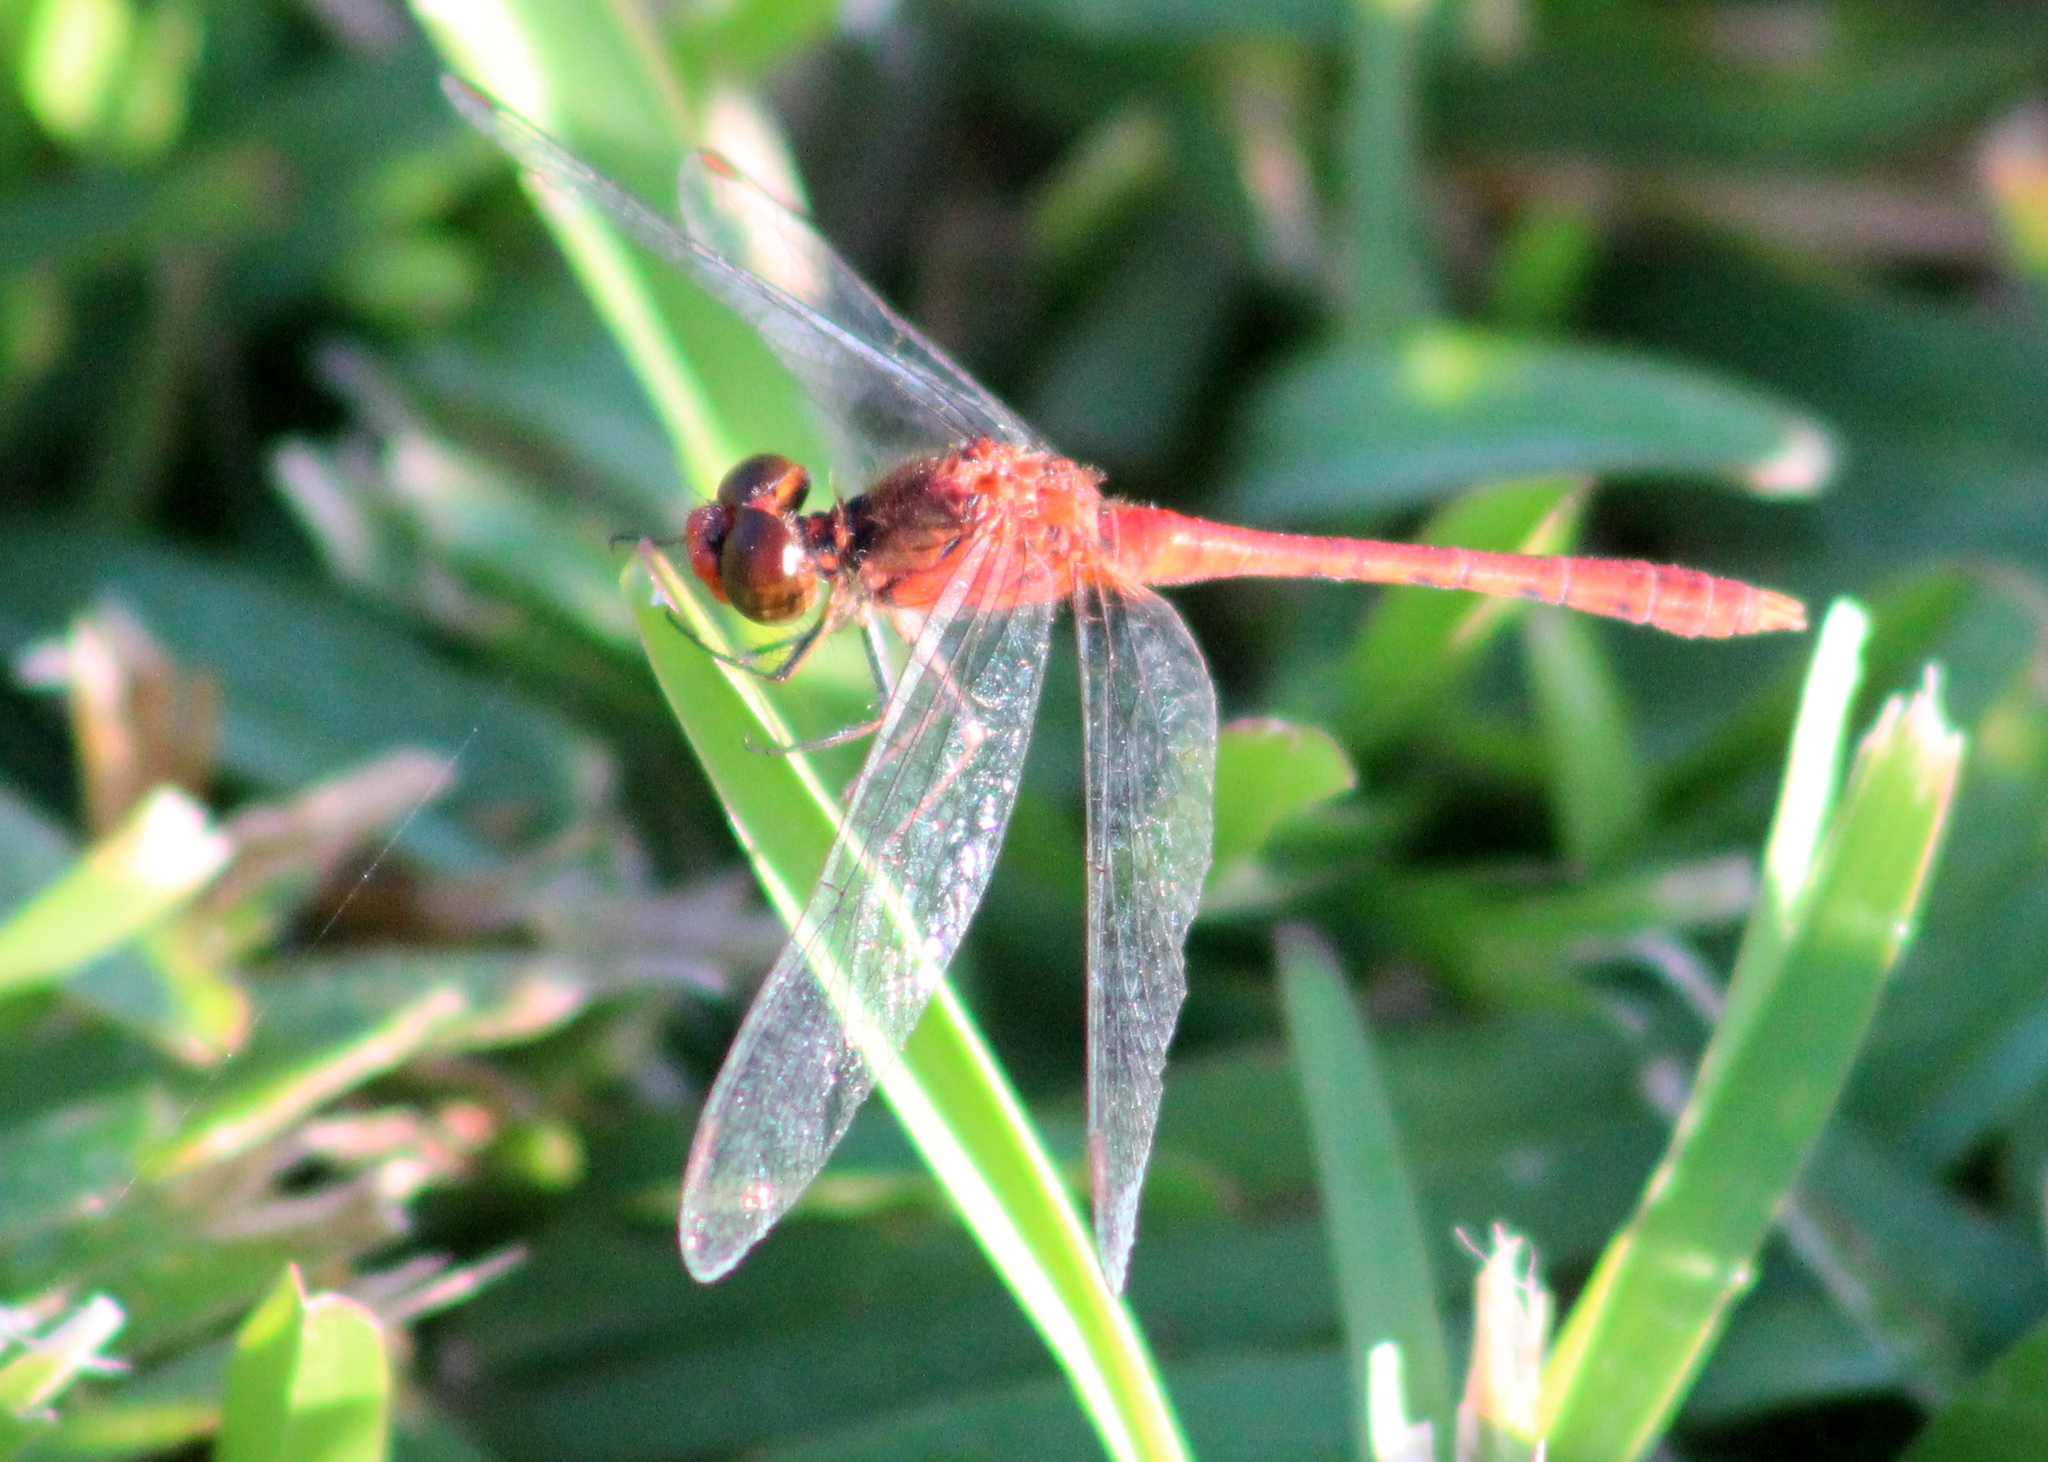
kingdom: Animalia
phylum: Arthropoda
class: Insecta
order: Odonata
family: Libellulidae
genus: Diplacodes
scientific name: Diplacodes bipunctata
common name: Red percher dragonfly
